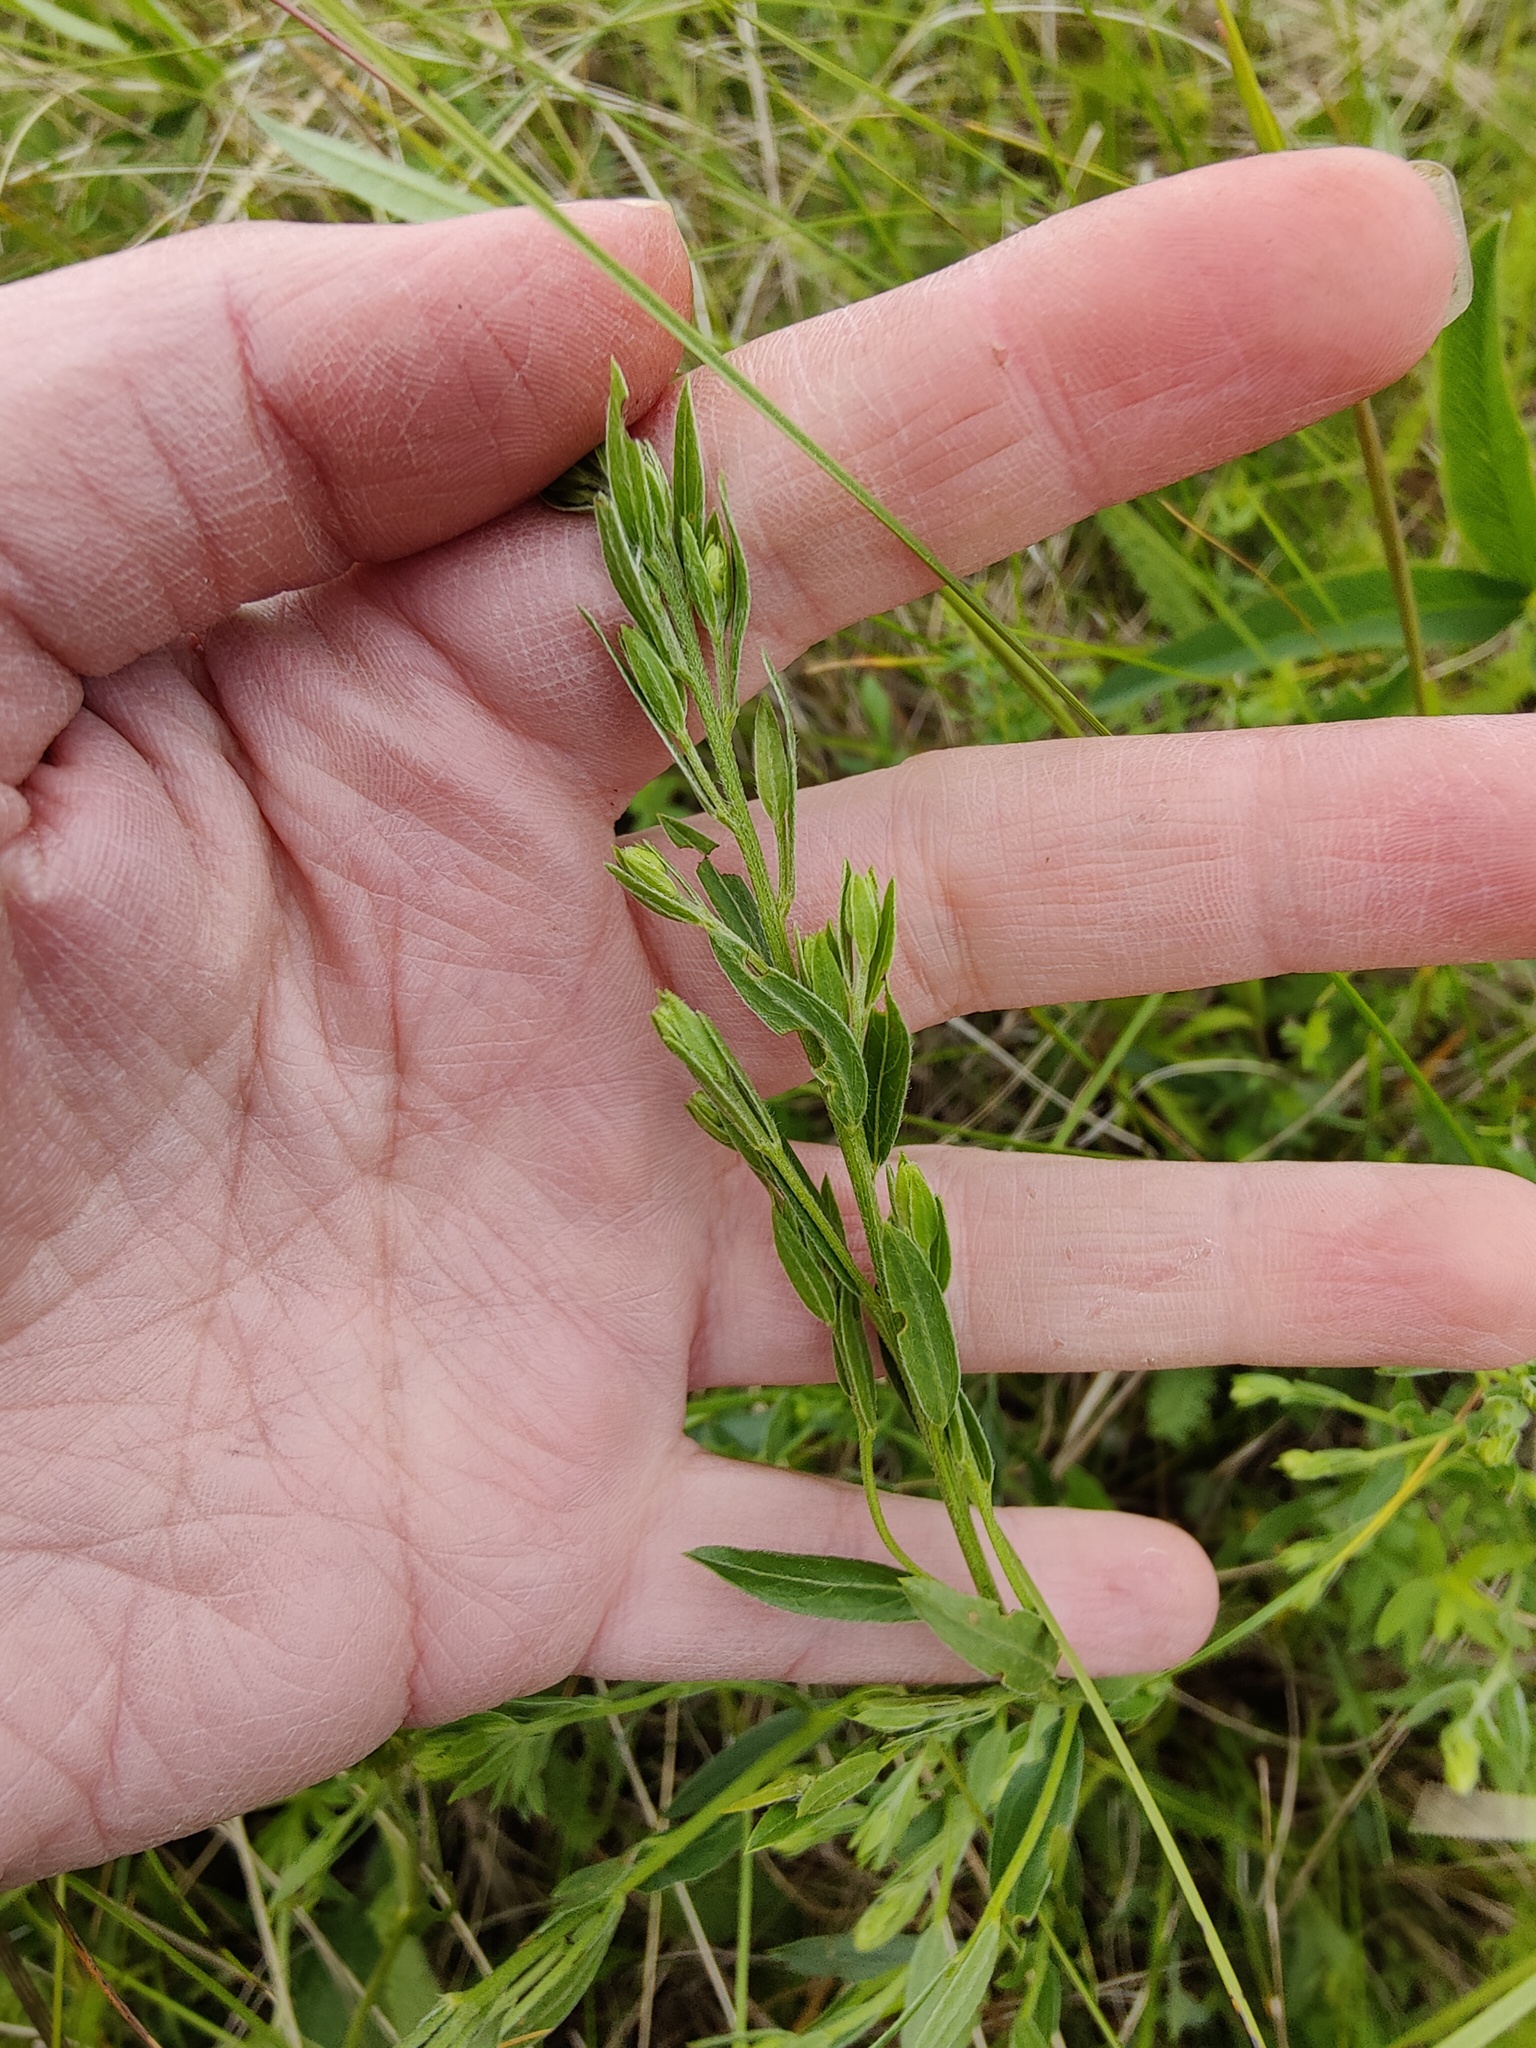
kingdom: Plantae
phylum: Tracheophyta
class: Magnoliopsida
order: Fabales
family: Fabaceae
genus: Genista
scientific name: Genista tinctoria
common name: Dyer's greenweed
